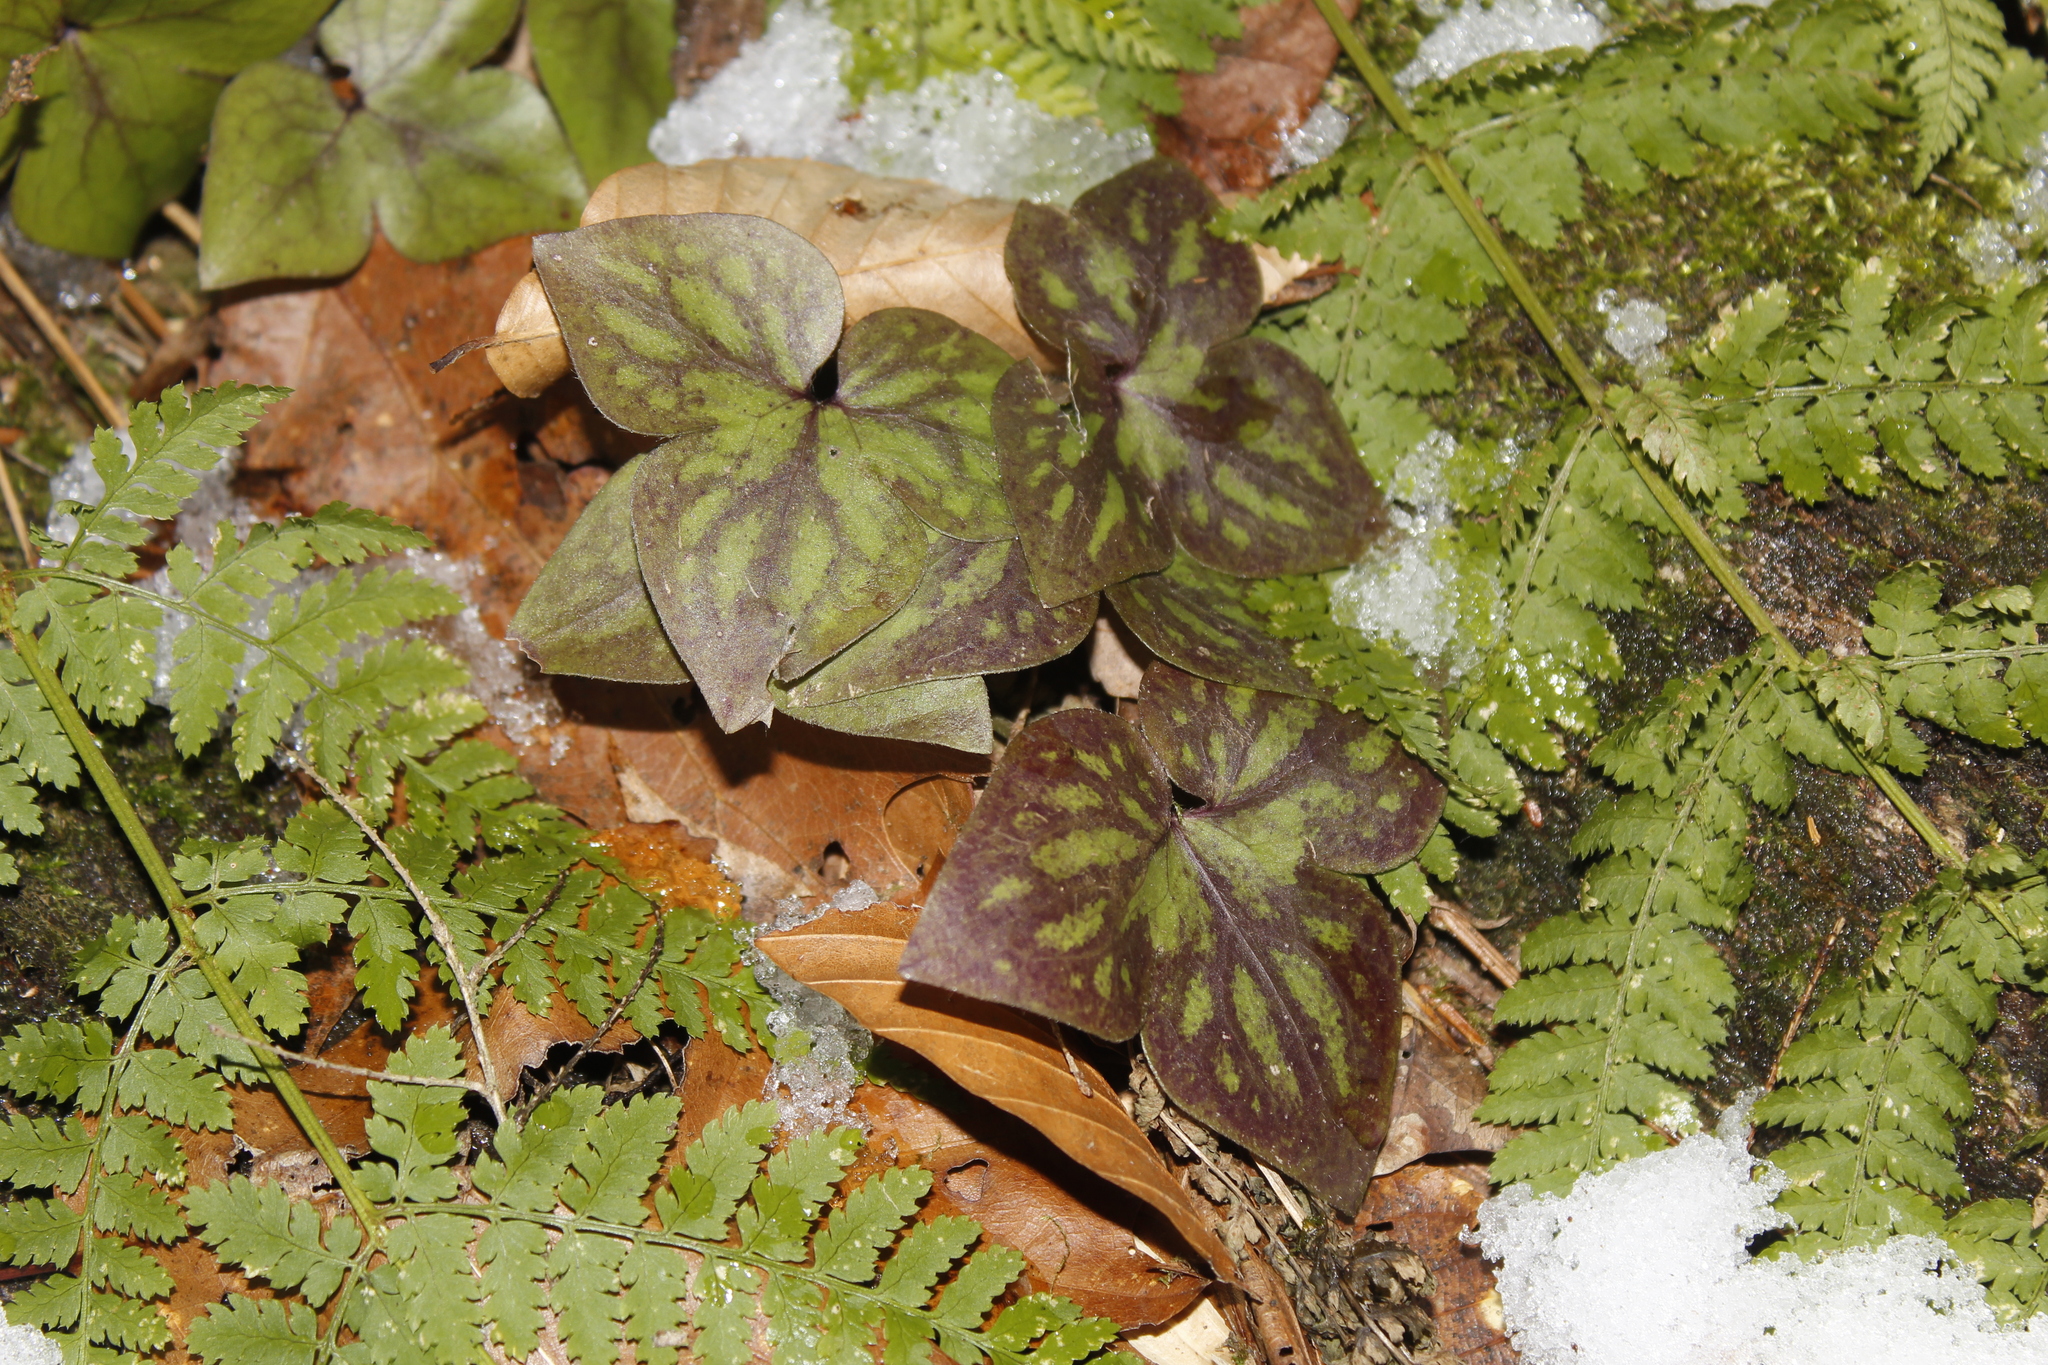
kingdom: Plantae
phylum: Tracheophyta
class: Magnoliopsida
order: Ranunculales
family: Ranunculaceae
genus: Hepatica
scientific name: Hepatica acutiloba
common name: Sharp-lobed hepatica
